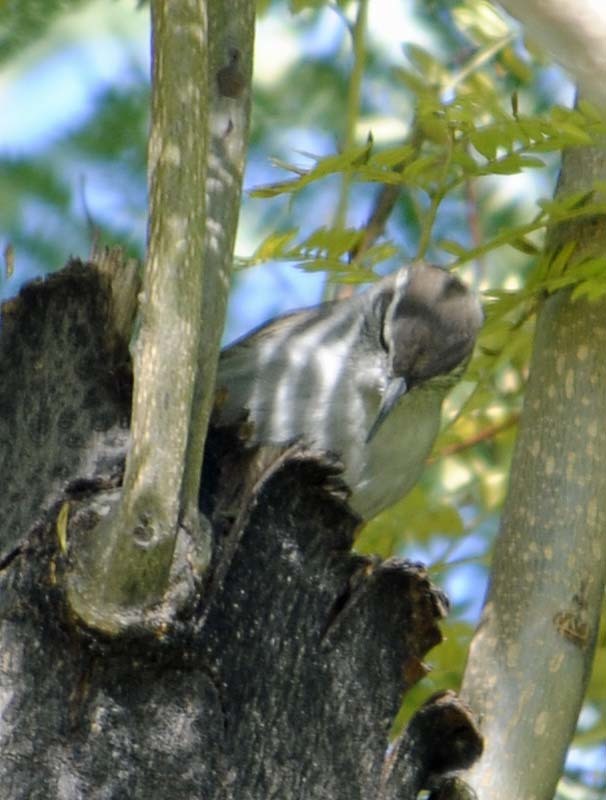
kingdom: Animalia
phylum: Chordata
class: Aves
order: Passeriformes
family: Troglodytidae
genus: Thryomanes
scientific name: Thryomanes bewickii
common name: Bewick's wren
